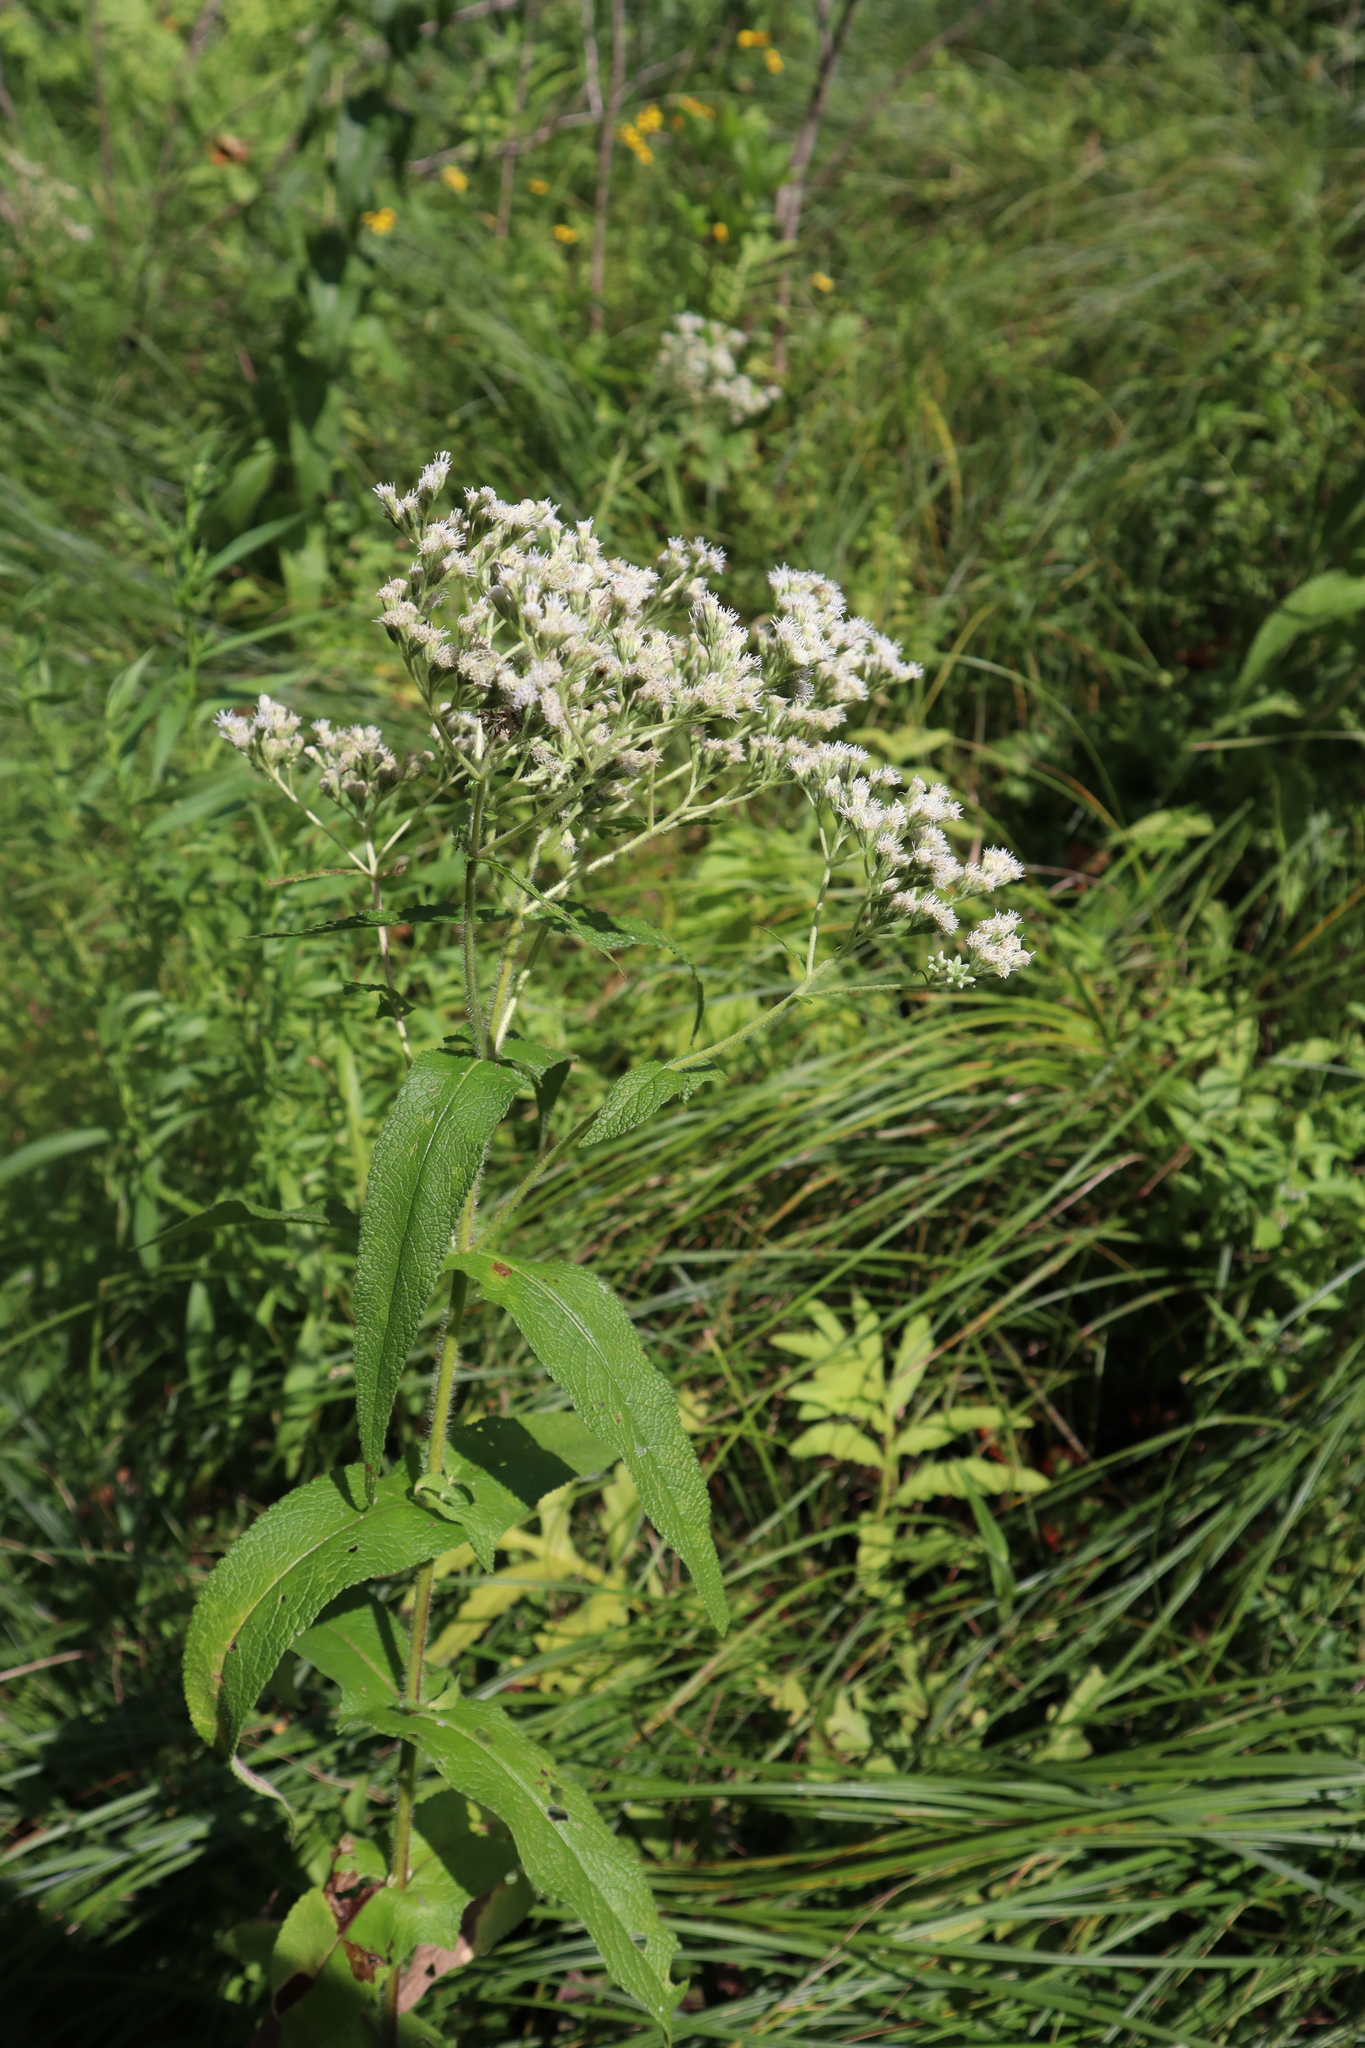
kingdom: Plantae
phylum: Tracheophyta
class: Magnoliopsida
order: Asterales
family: Asteraceae
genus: Eupatorium
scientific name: Eupatorium perfoliatum
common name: Boneset
